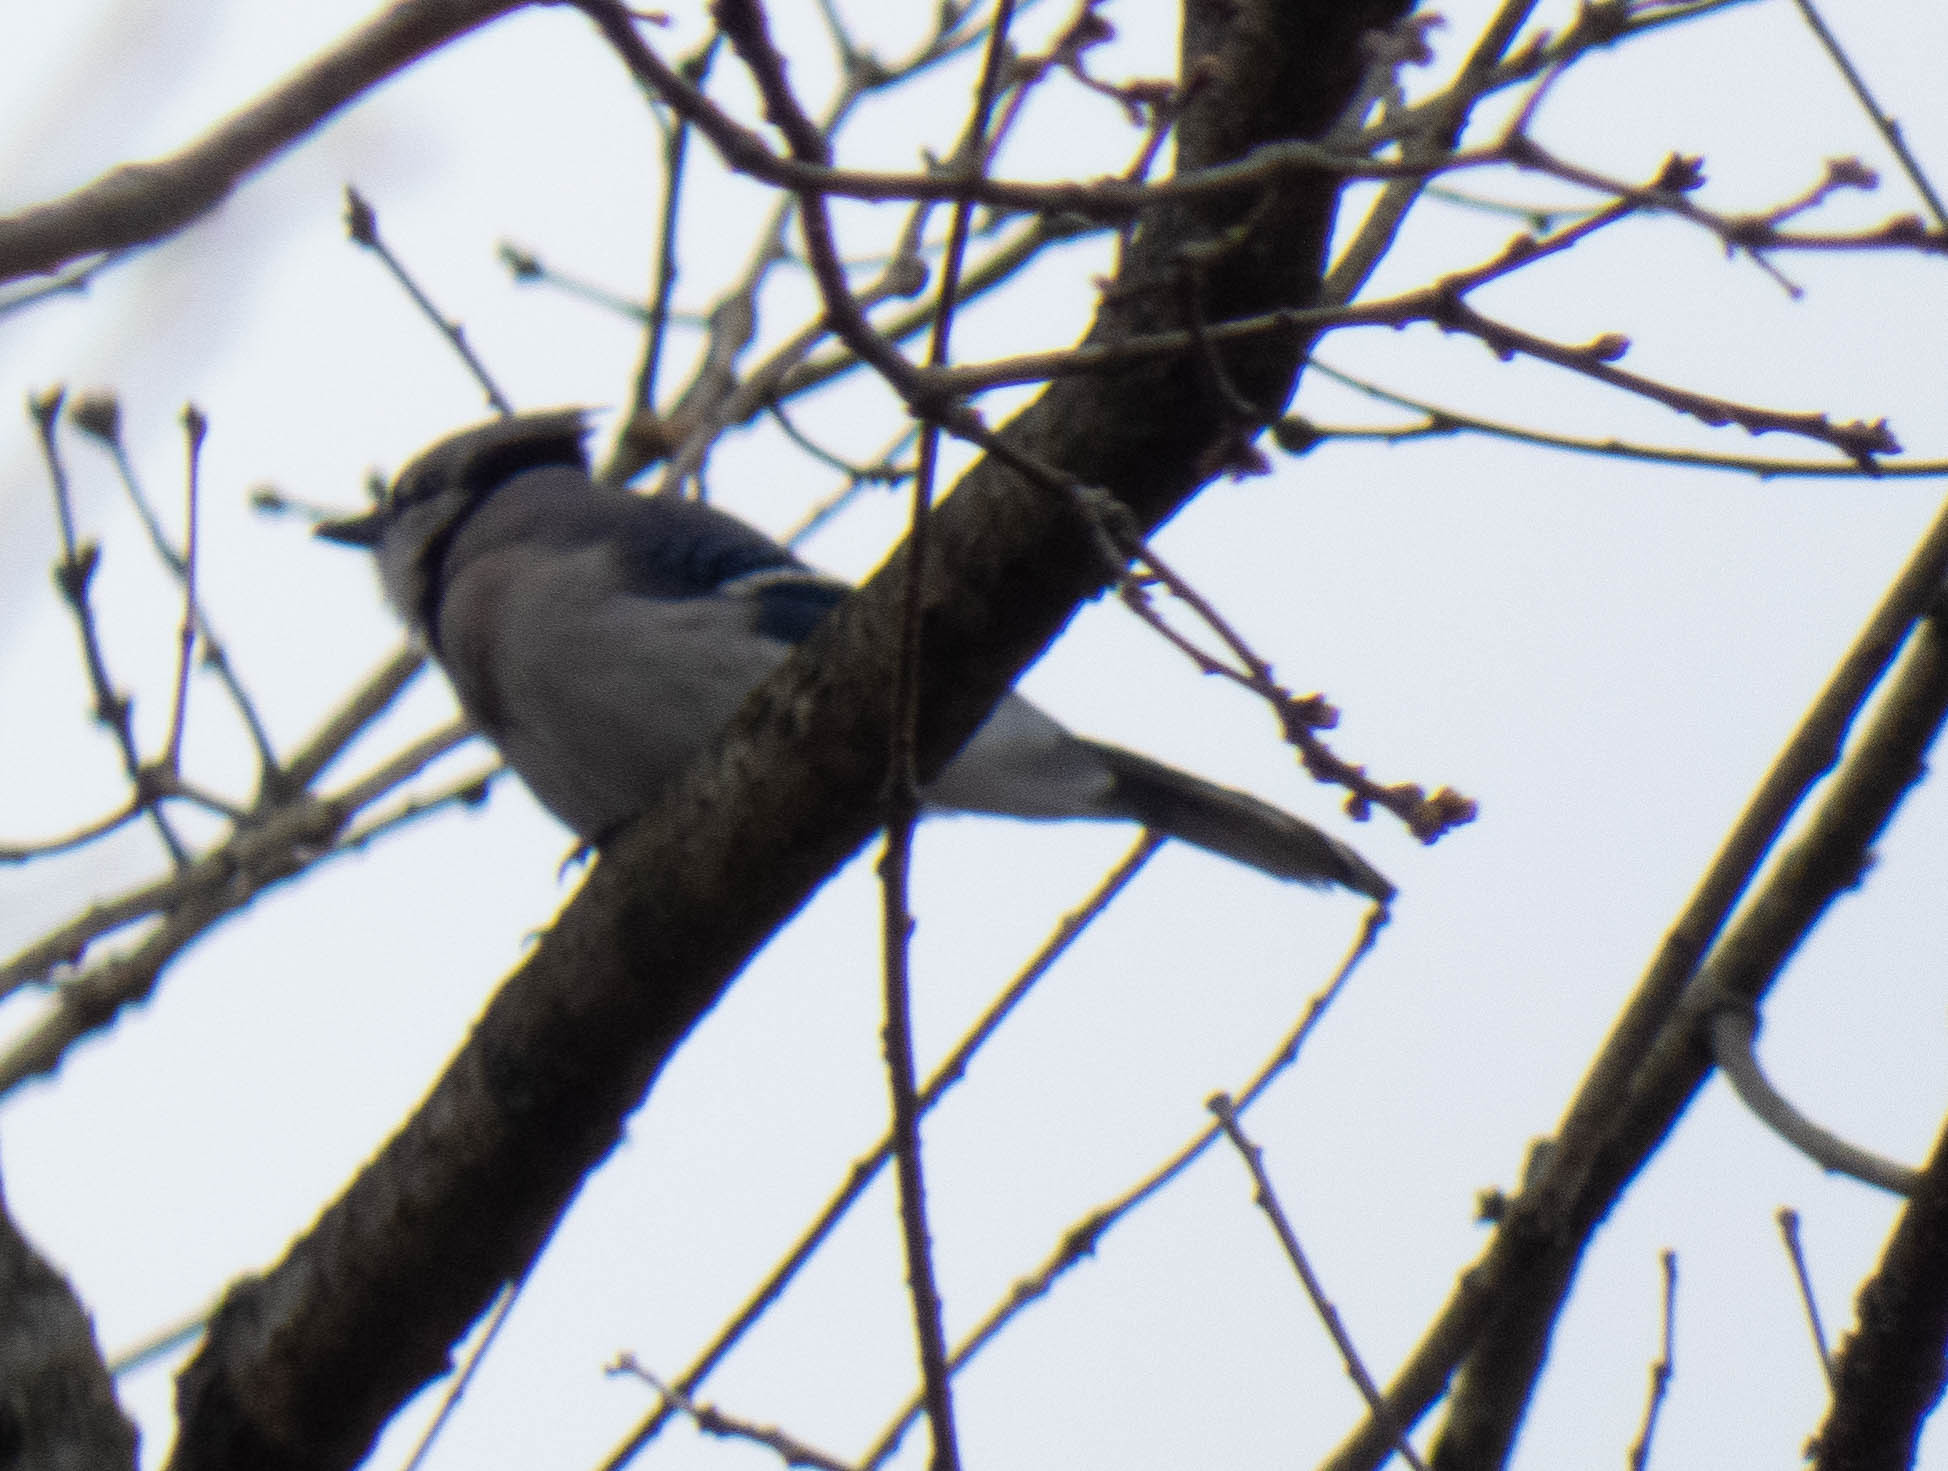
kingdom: Animalia
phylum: Chordata
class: Aves
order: Passeriformes
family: Corvidae
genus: Cyanocitta
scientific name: Cyanocitta cristata
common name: Blue jay
